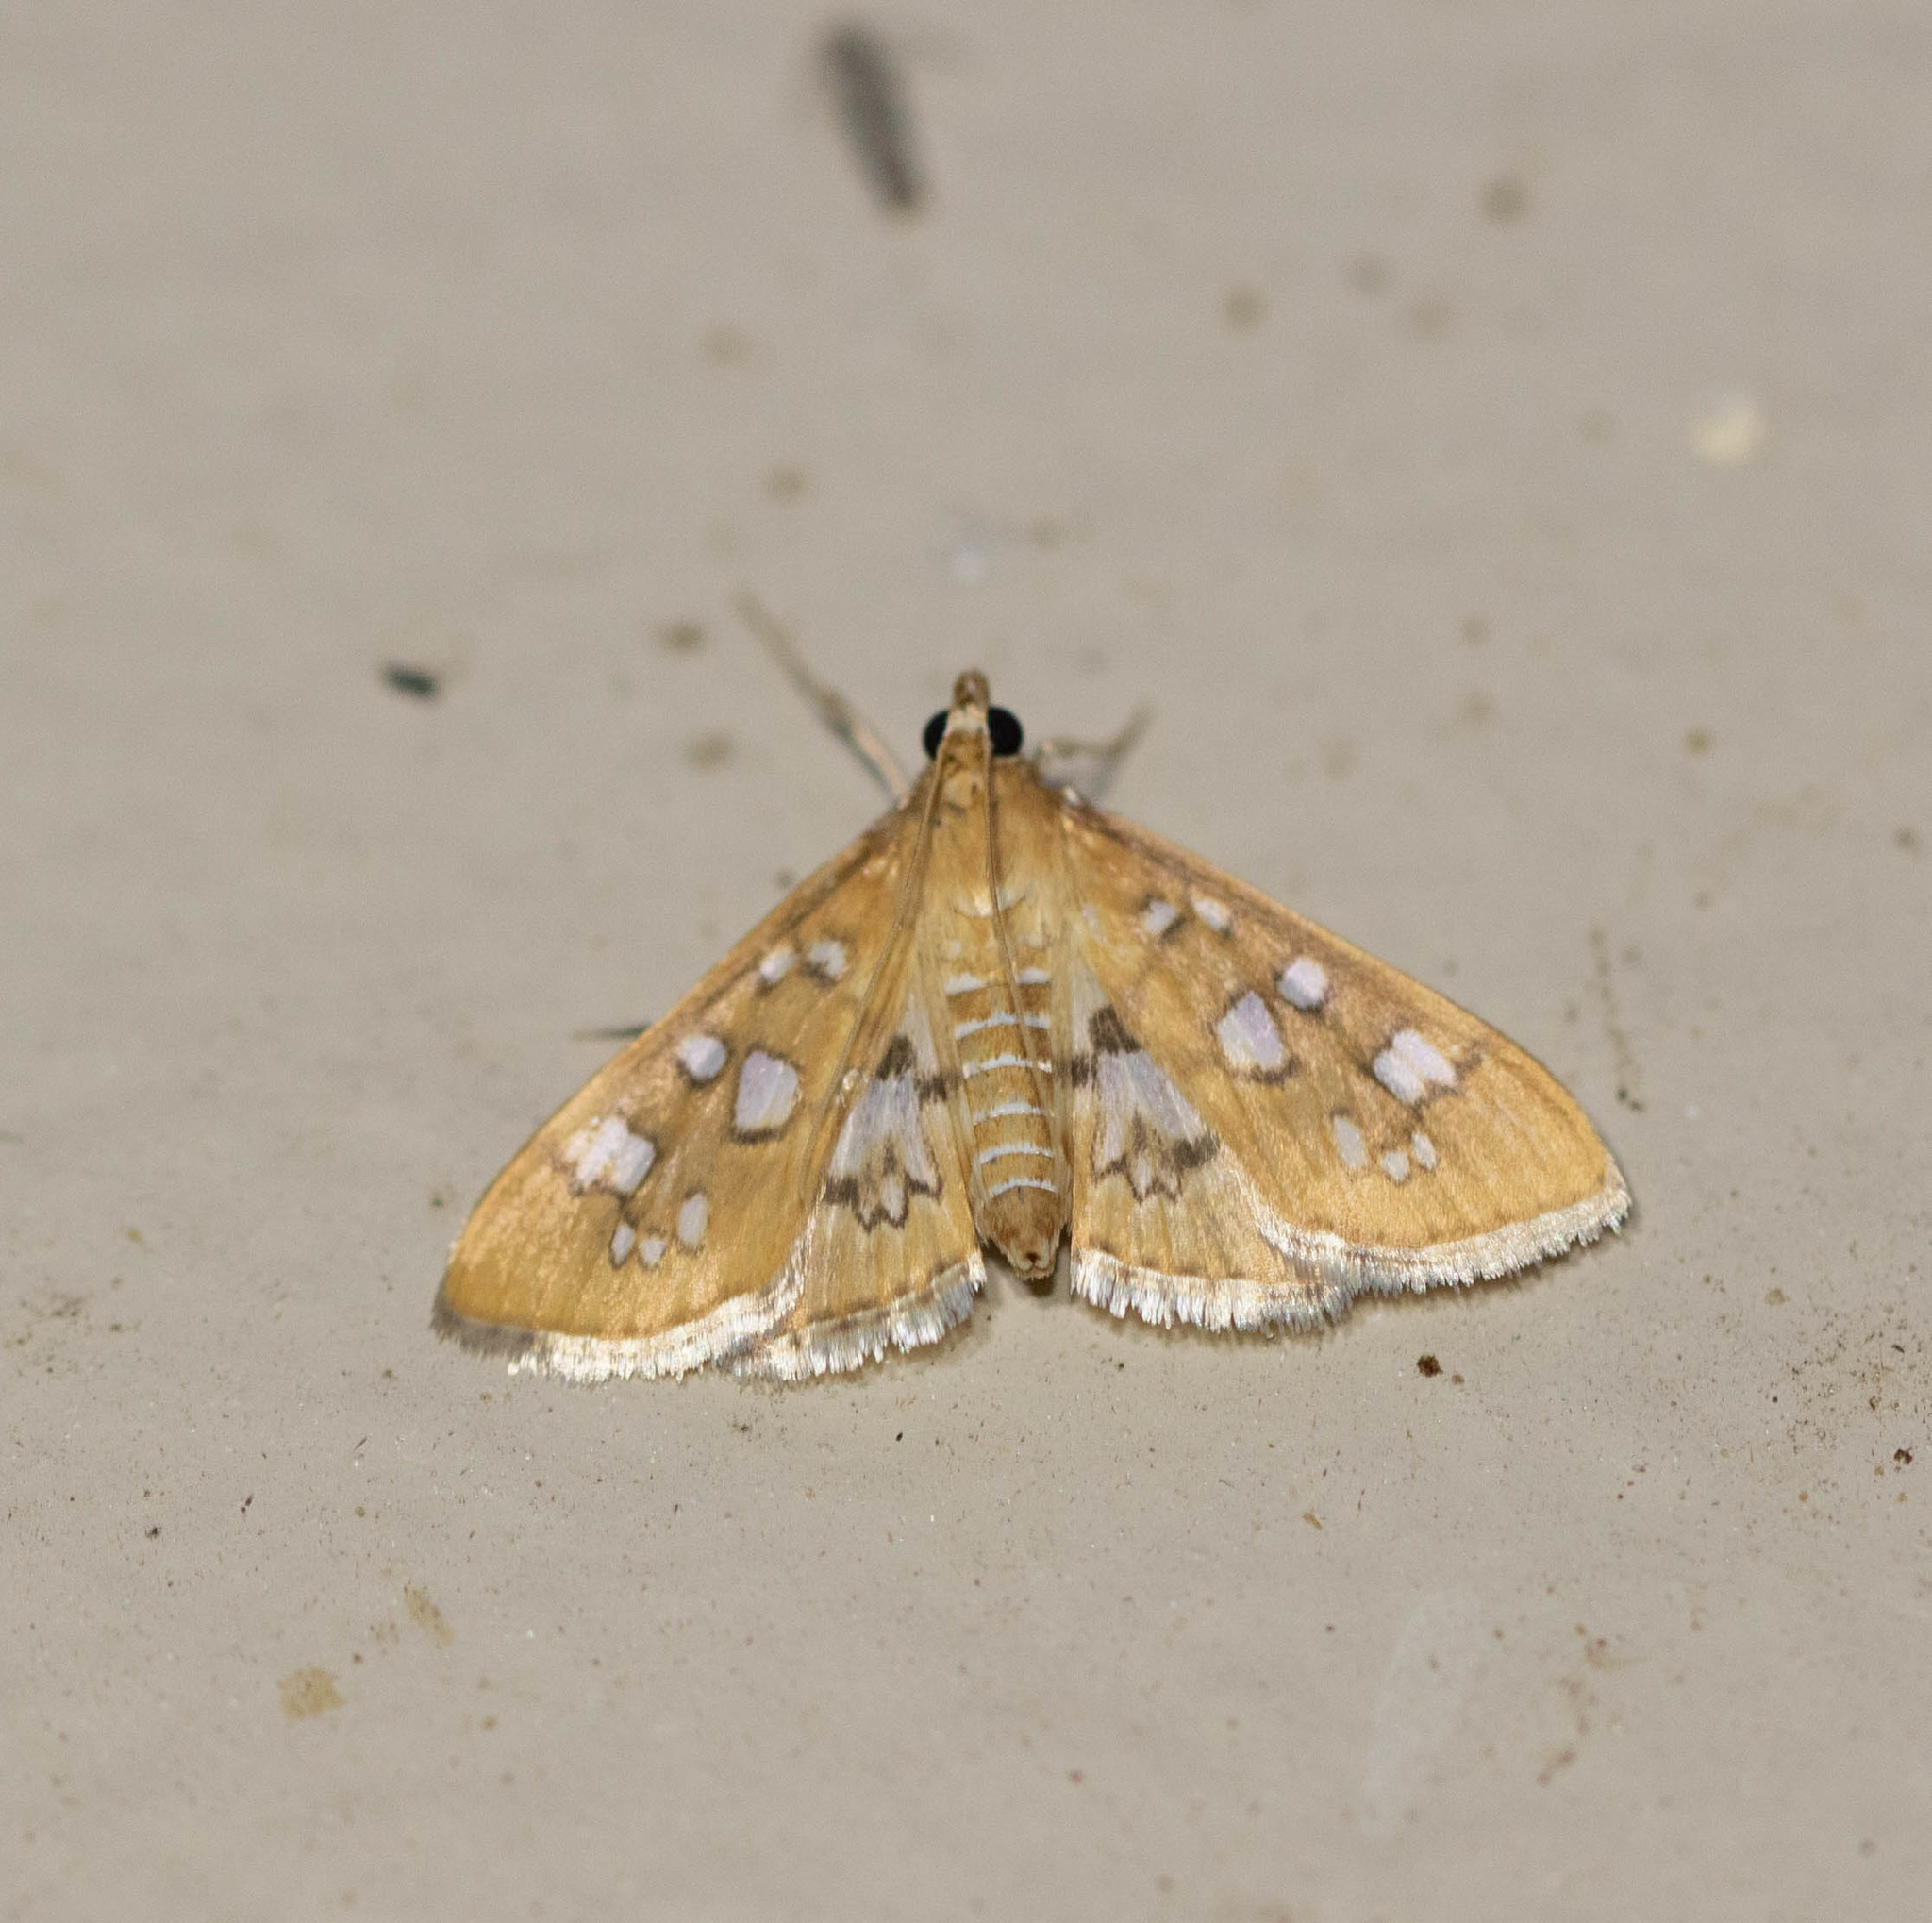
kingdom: Animalia
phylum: Arthropoda
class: Insecta
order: Lepidoptera
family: Crambidae
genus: Samea
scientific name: Samea baccatalis
